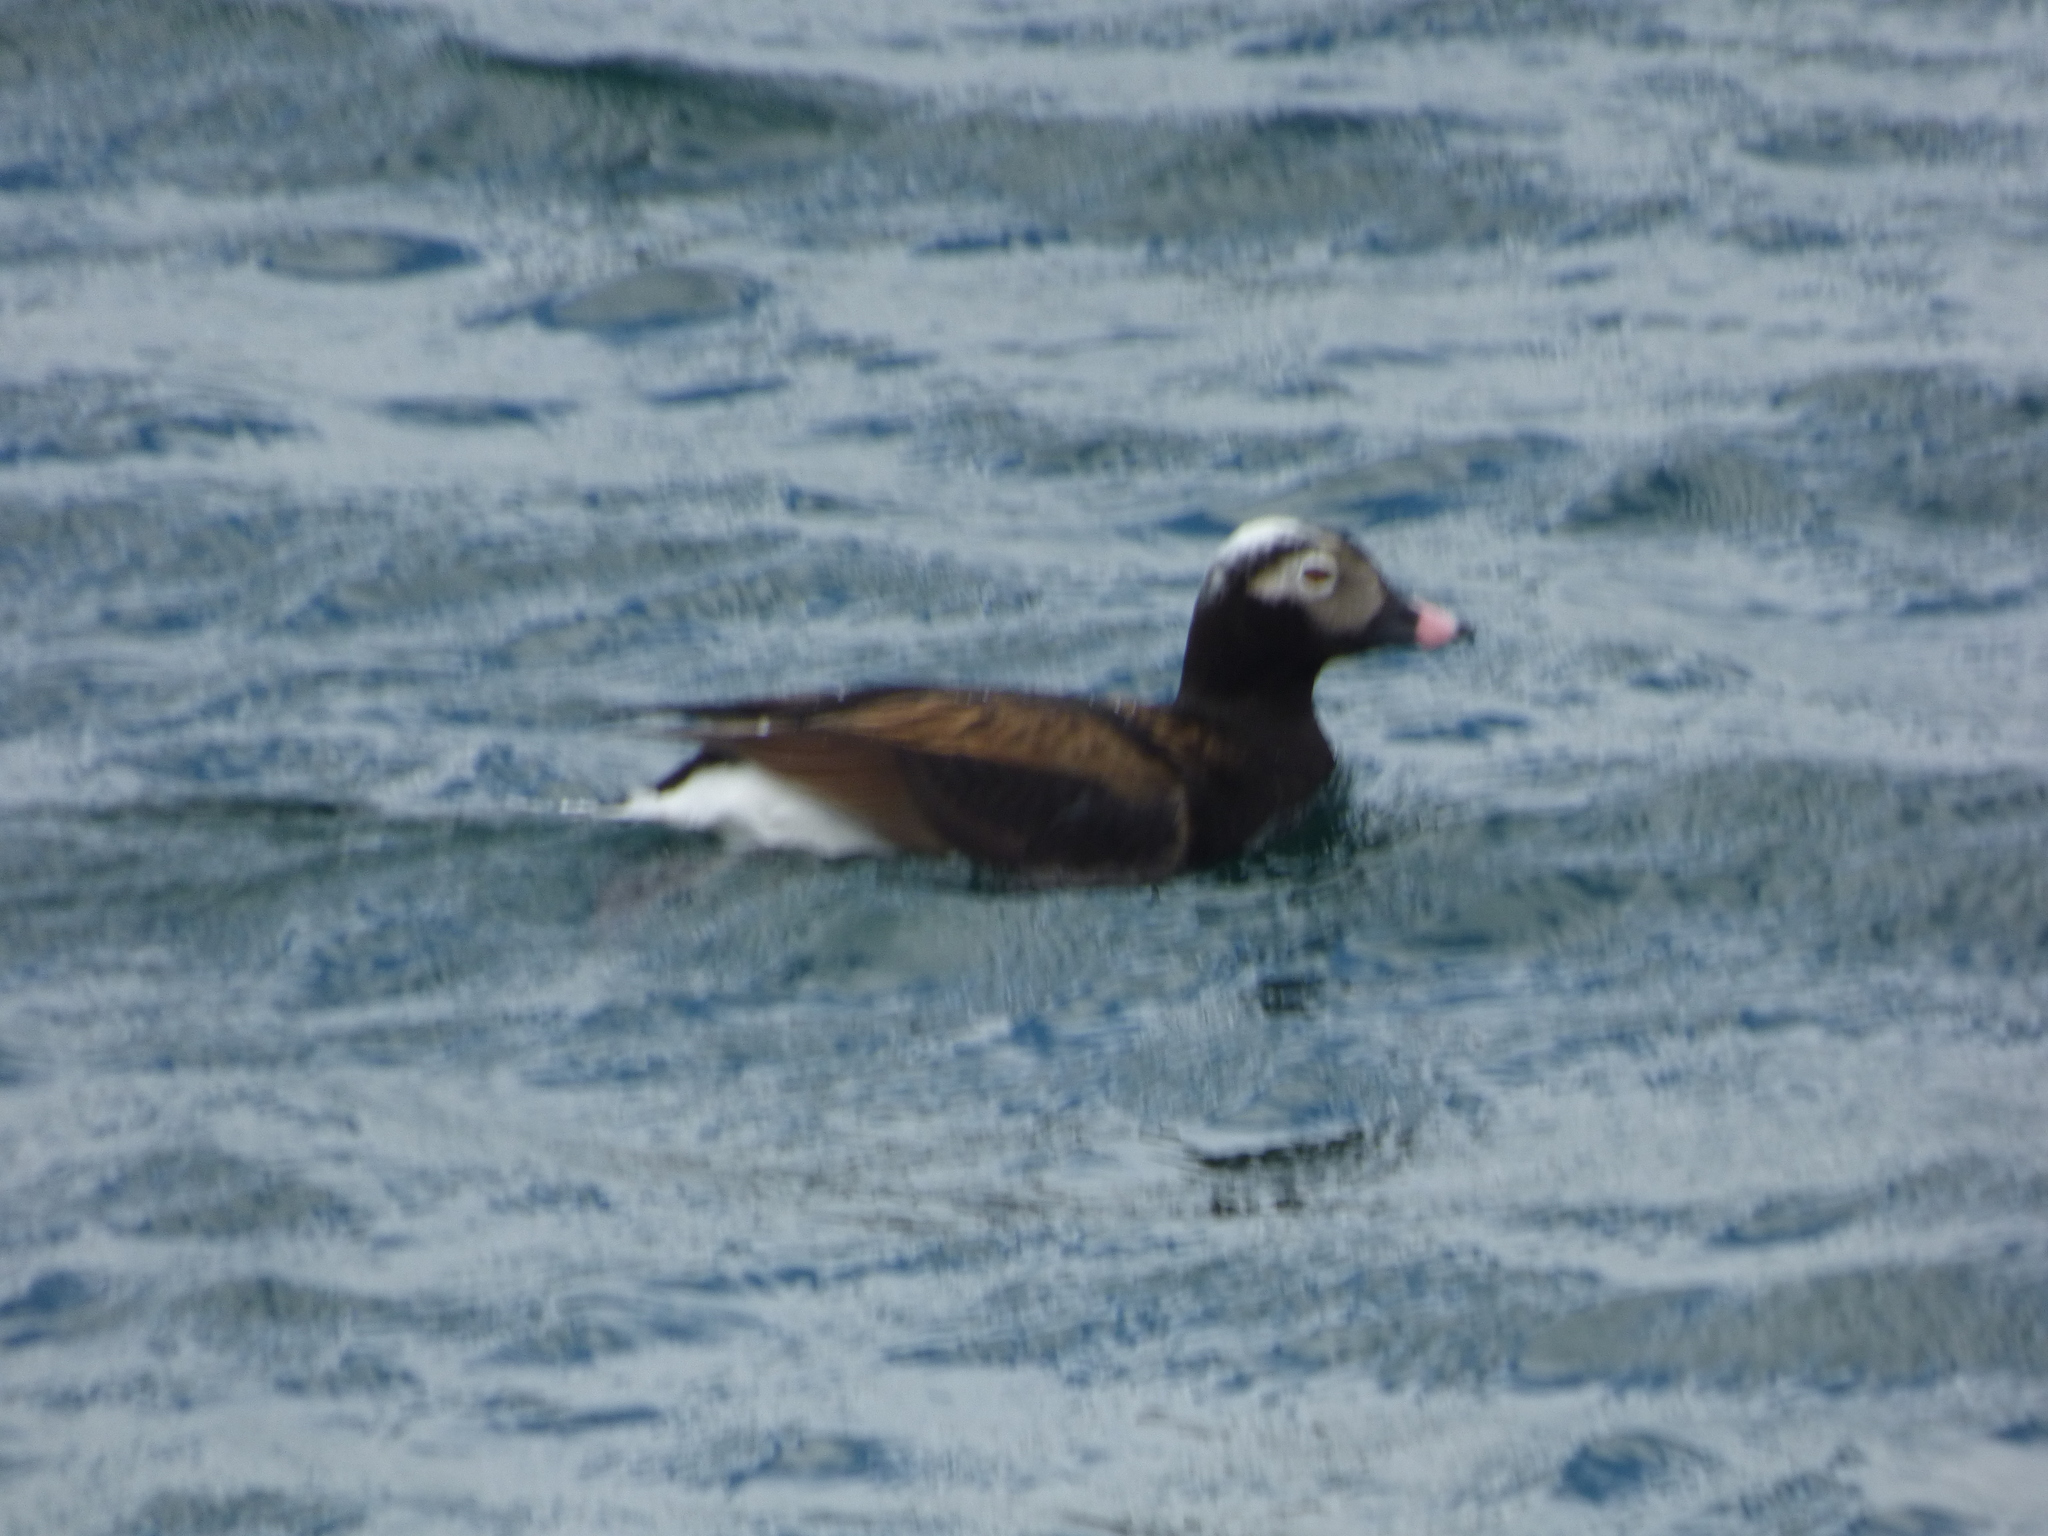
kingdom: Animalia
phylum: Chordata
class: Aves
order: Anseriformes
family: Anatidae
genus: Clangula
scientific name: Clangula hyemalis
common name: Long-tailed duck
